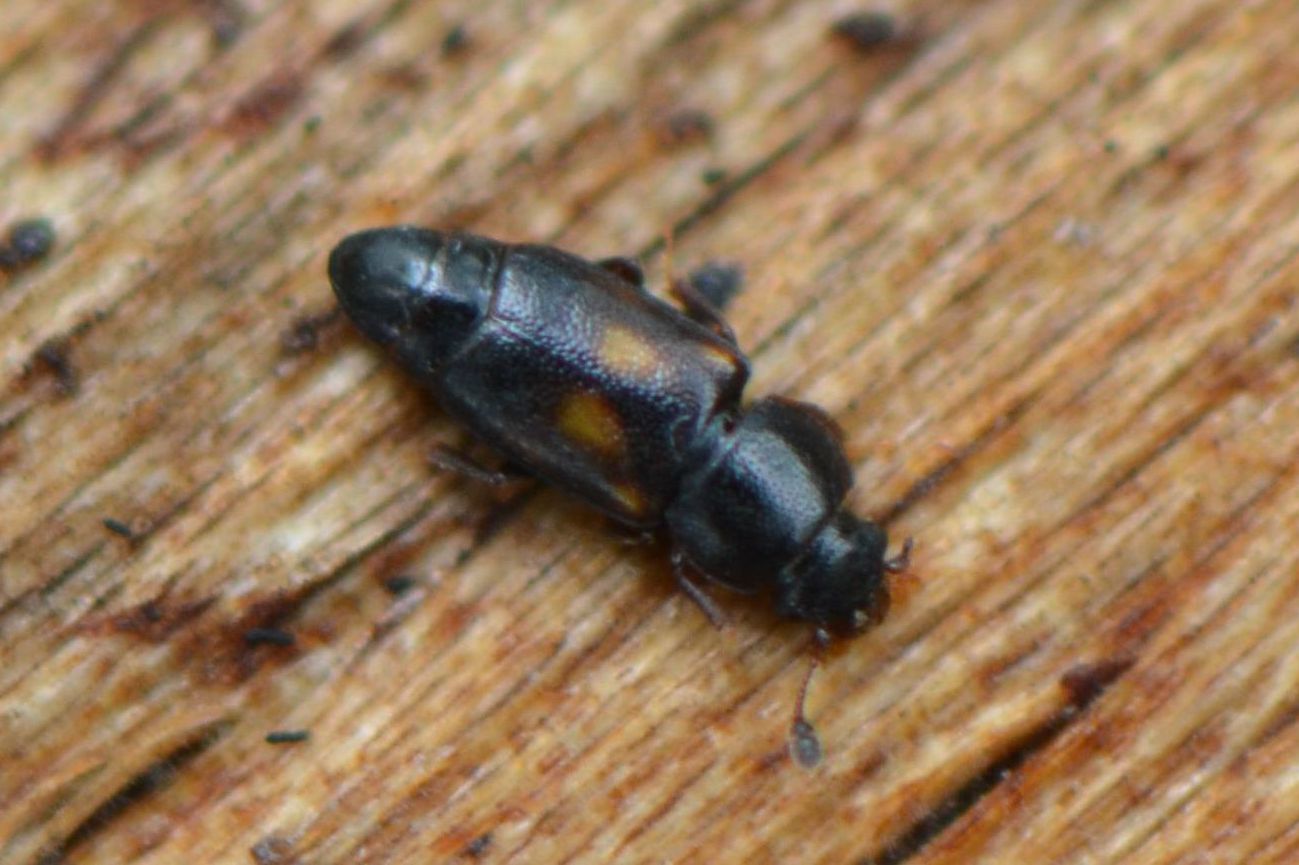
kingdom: Animalia
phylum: Arthropoda
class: Insecta
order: Coleoptera
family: Nitidulidae
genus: Carpophilus
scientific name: Carpophilus sexpustulatus
